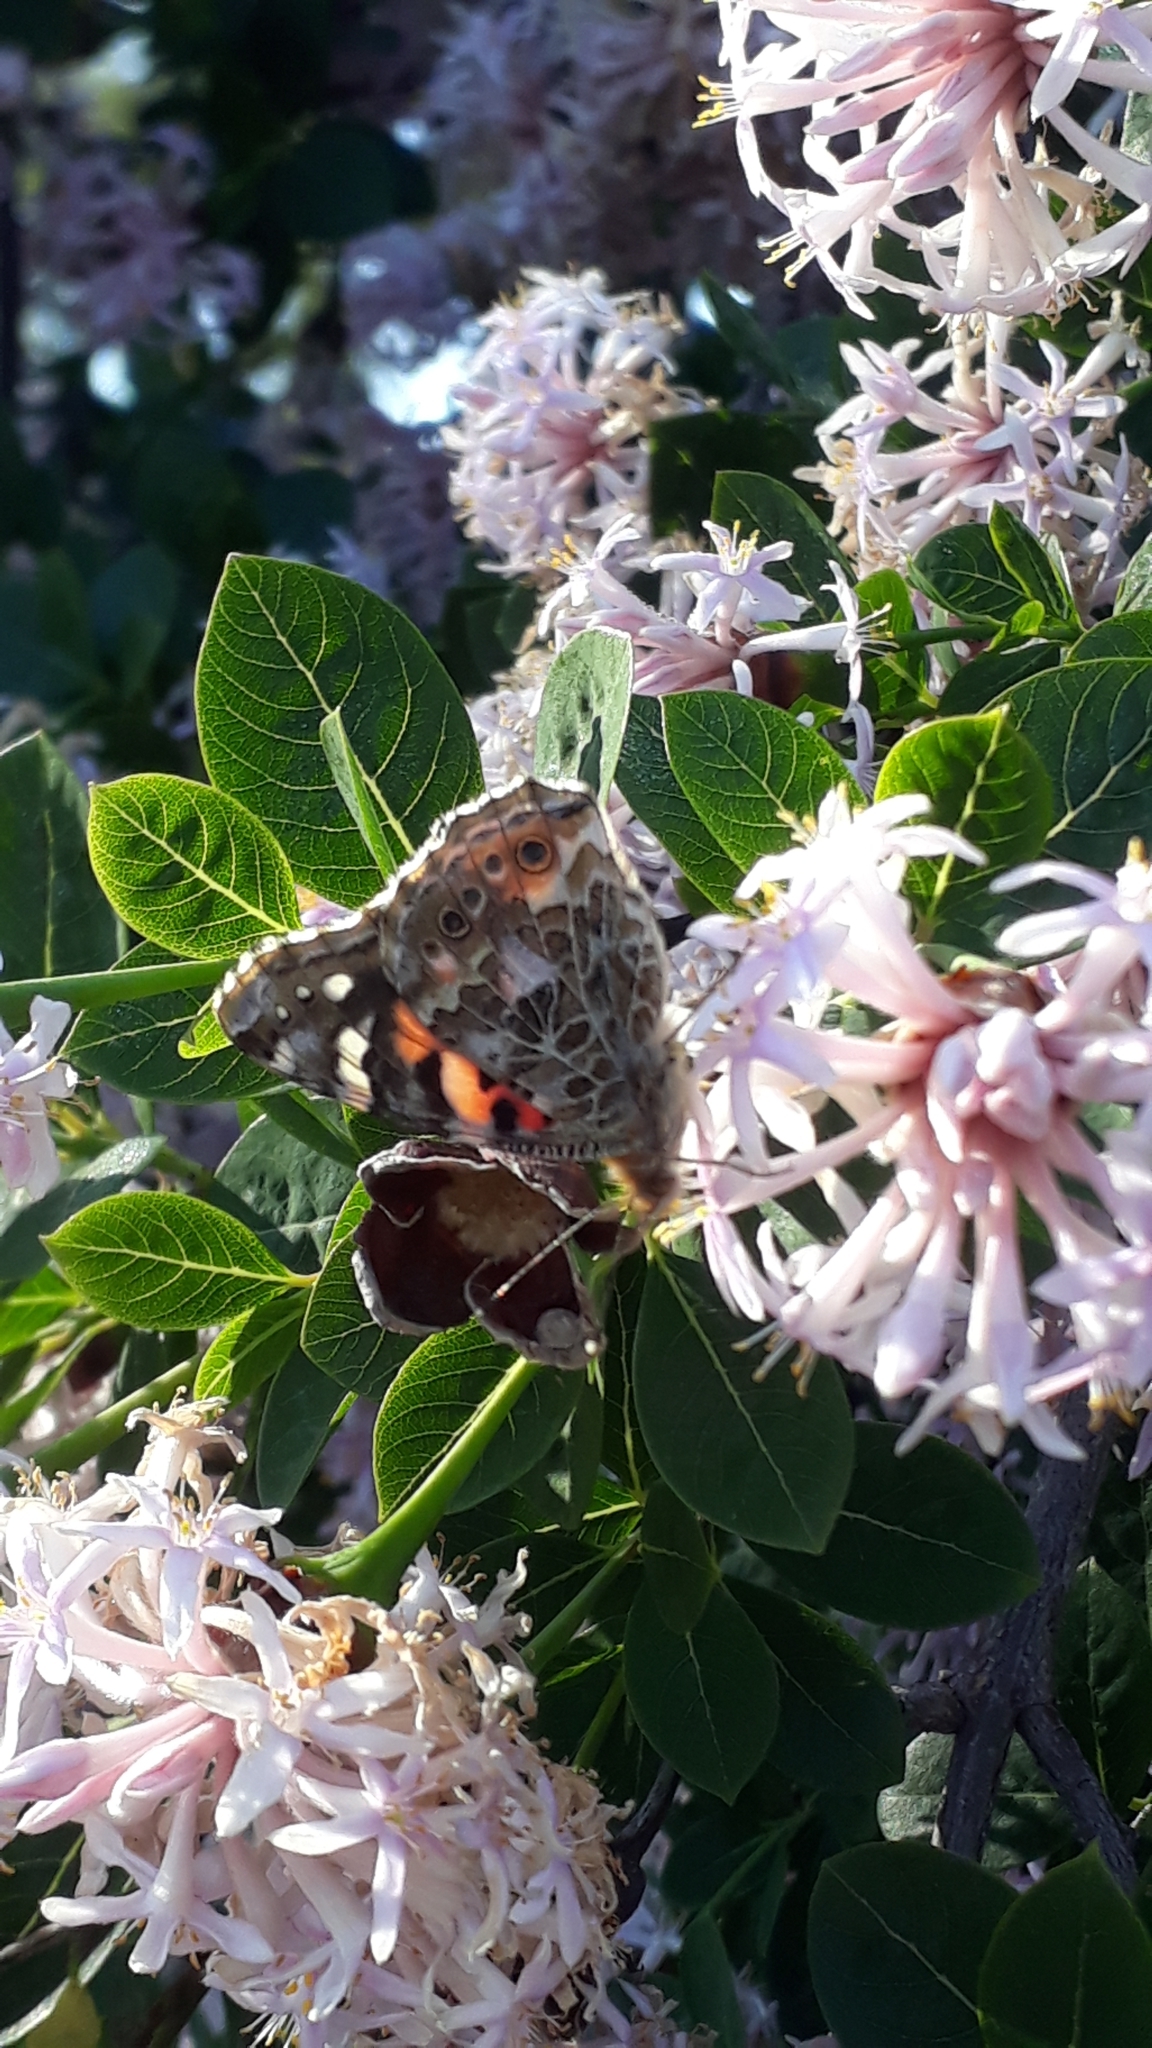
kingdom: Animalia
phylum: Arthropoda
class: Insecta
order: Lepidoptera
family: Nymphalidae
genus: Vanessa
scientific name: Vanessa cardui
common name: Painted lady
